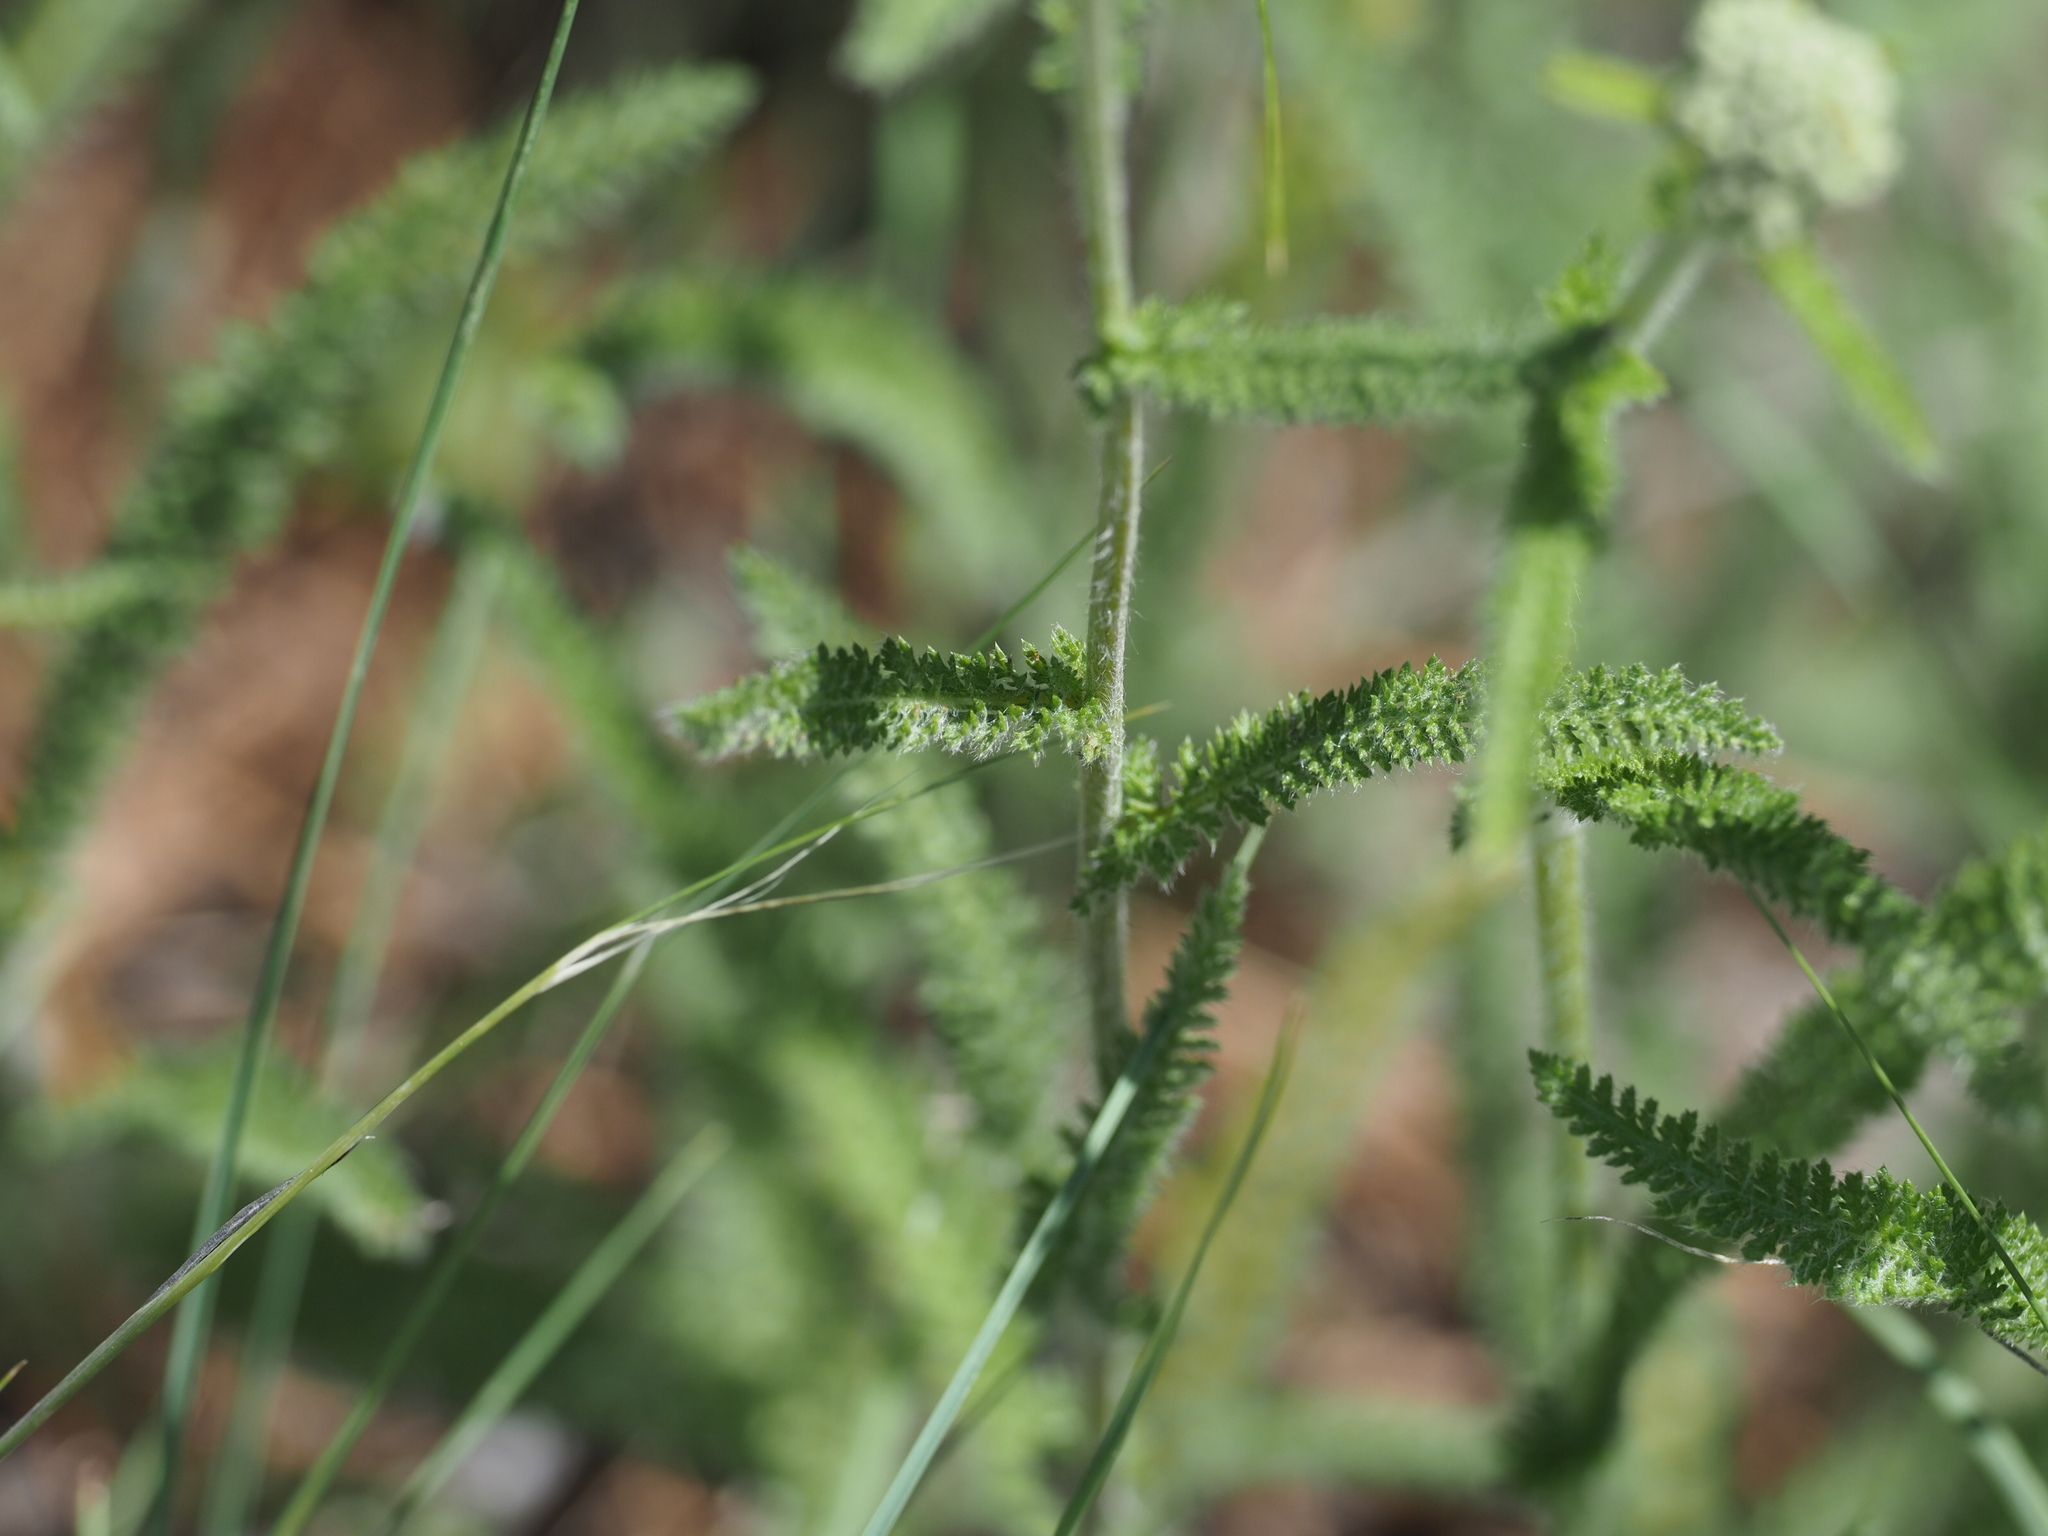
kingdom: Plantae
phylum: Tracheophyta
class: Magnoliopsida
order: Asterales
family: Asteraceae
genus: Achillea
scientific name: Achillea millefolium
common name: Yarrow
